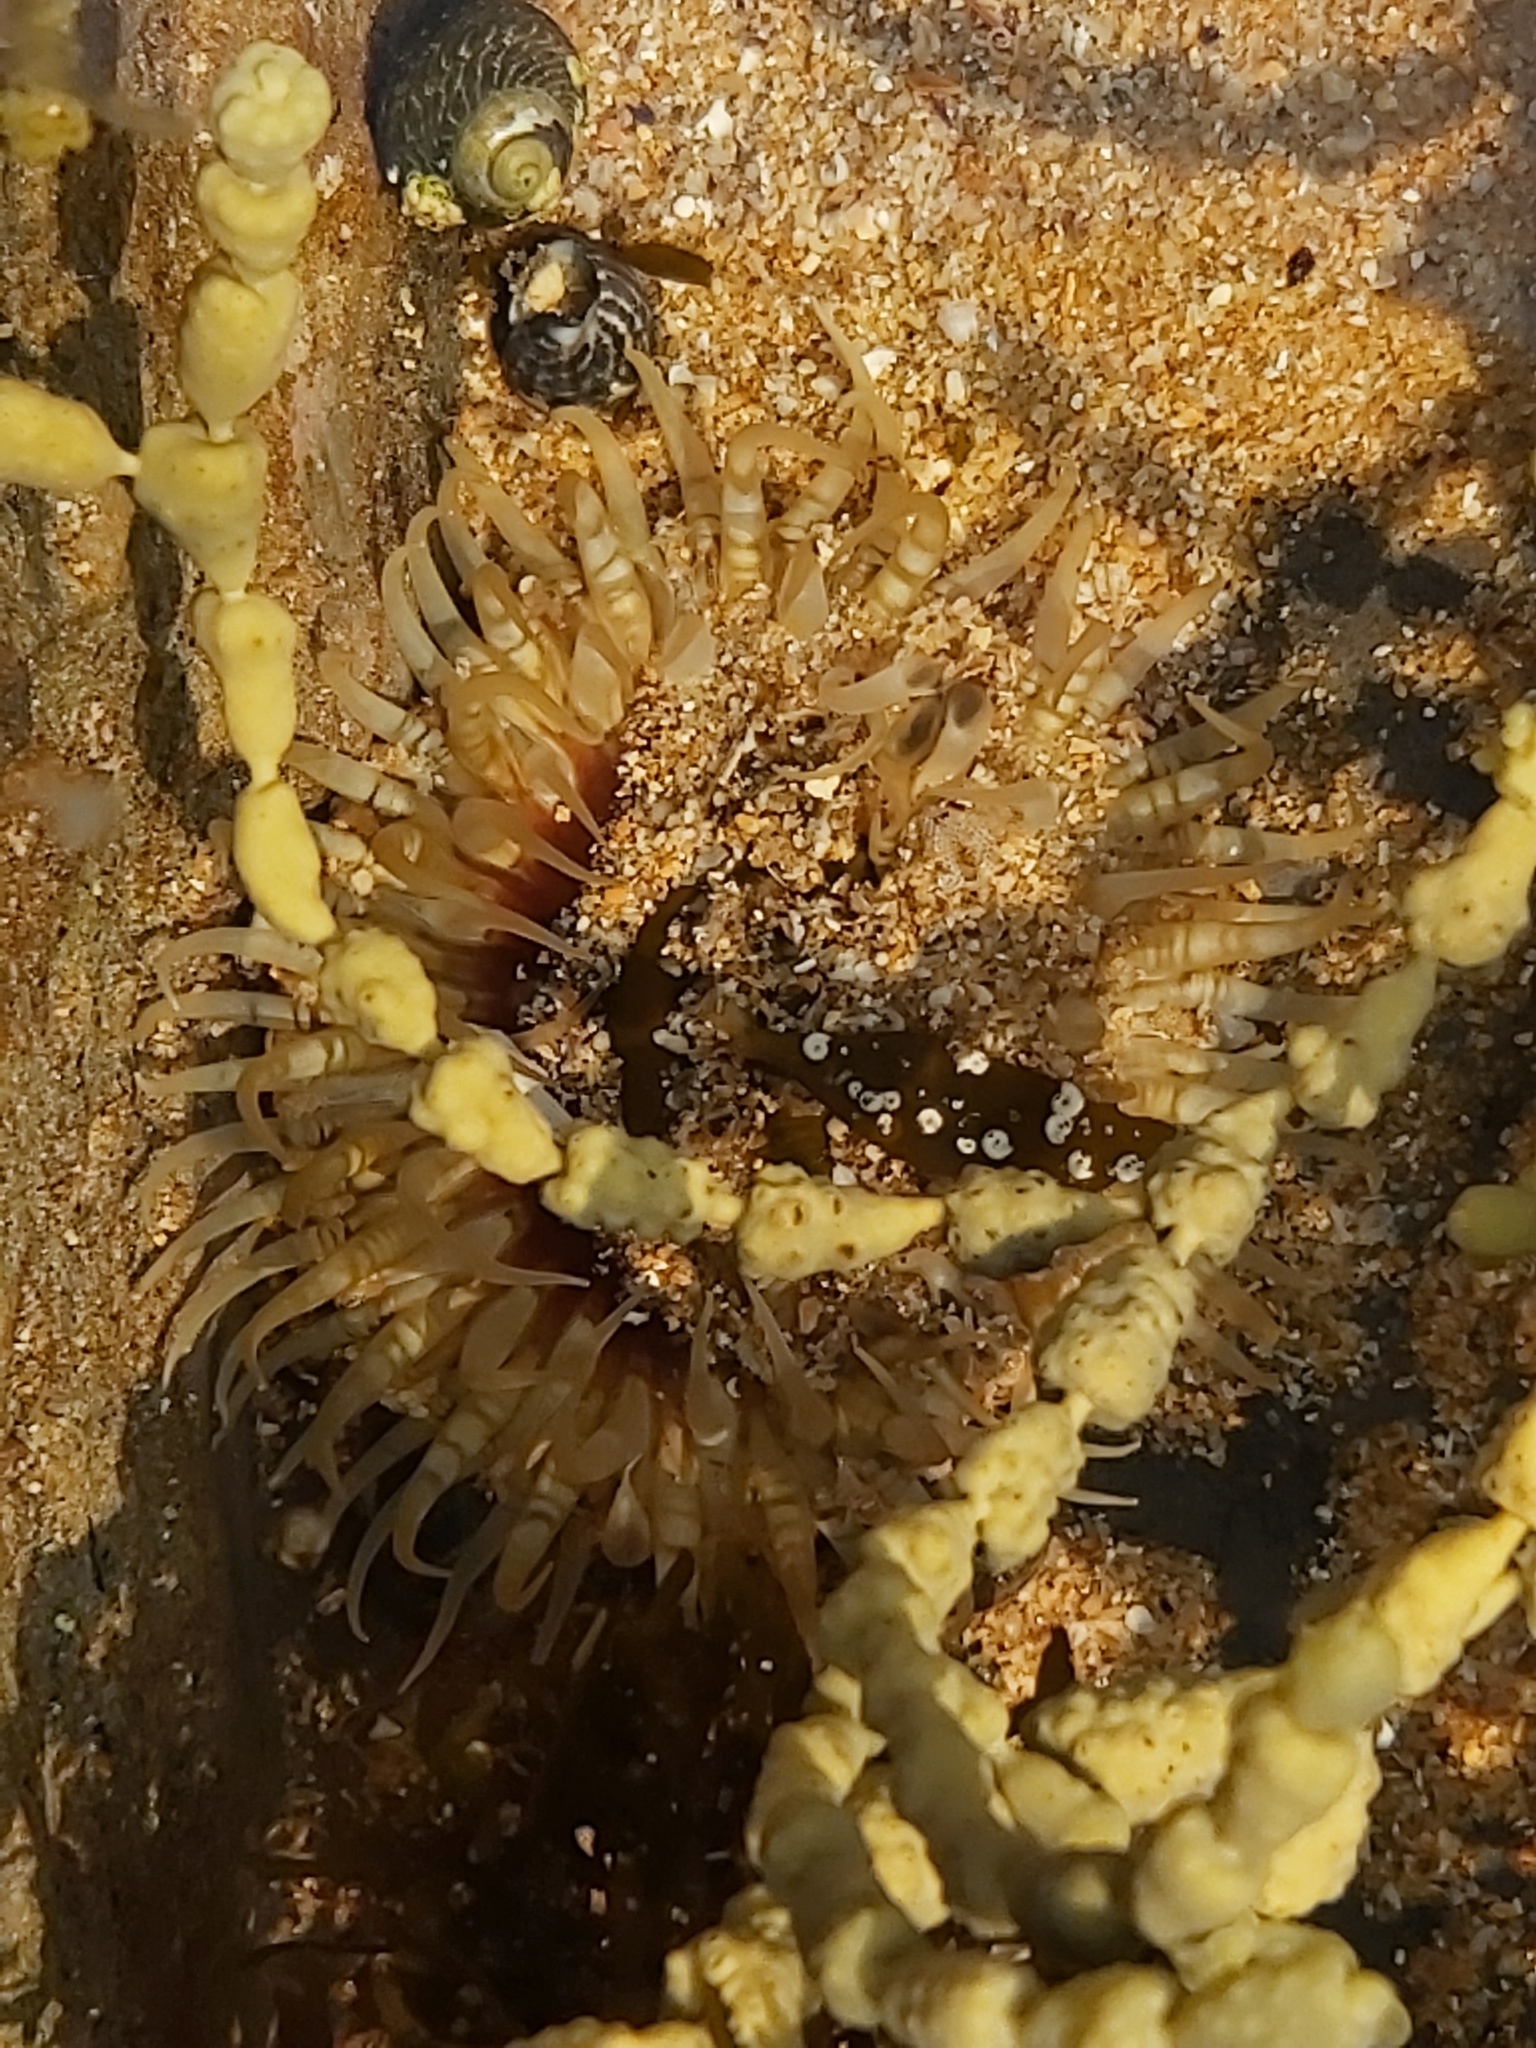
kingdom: Animalia
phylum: Cnidaria
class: Anthozoa
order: Actiniaria
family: Actiniidae
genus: Oulactis
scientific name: Oulactis muscosa
